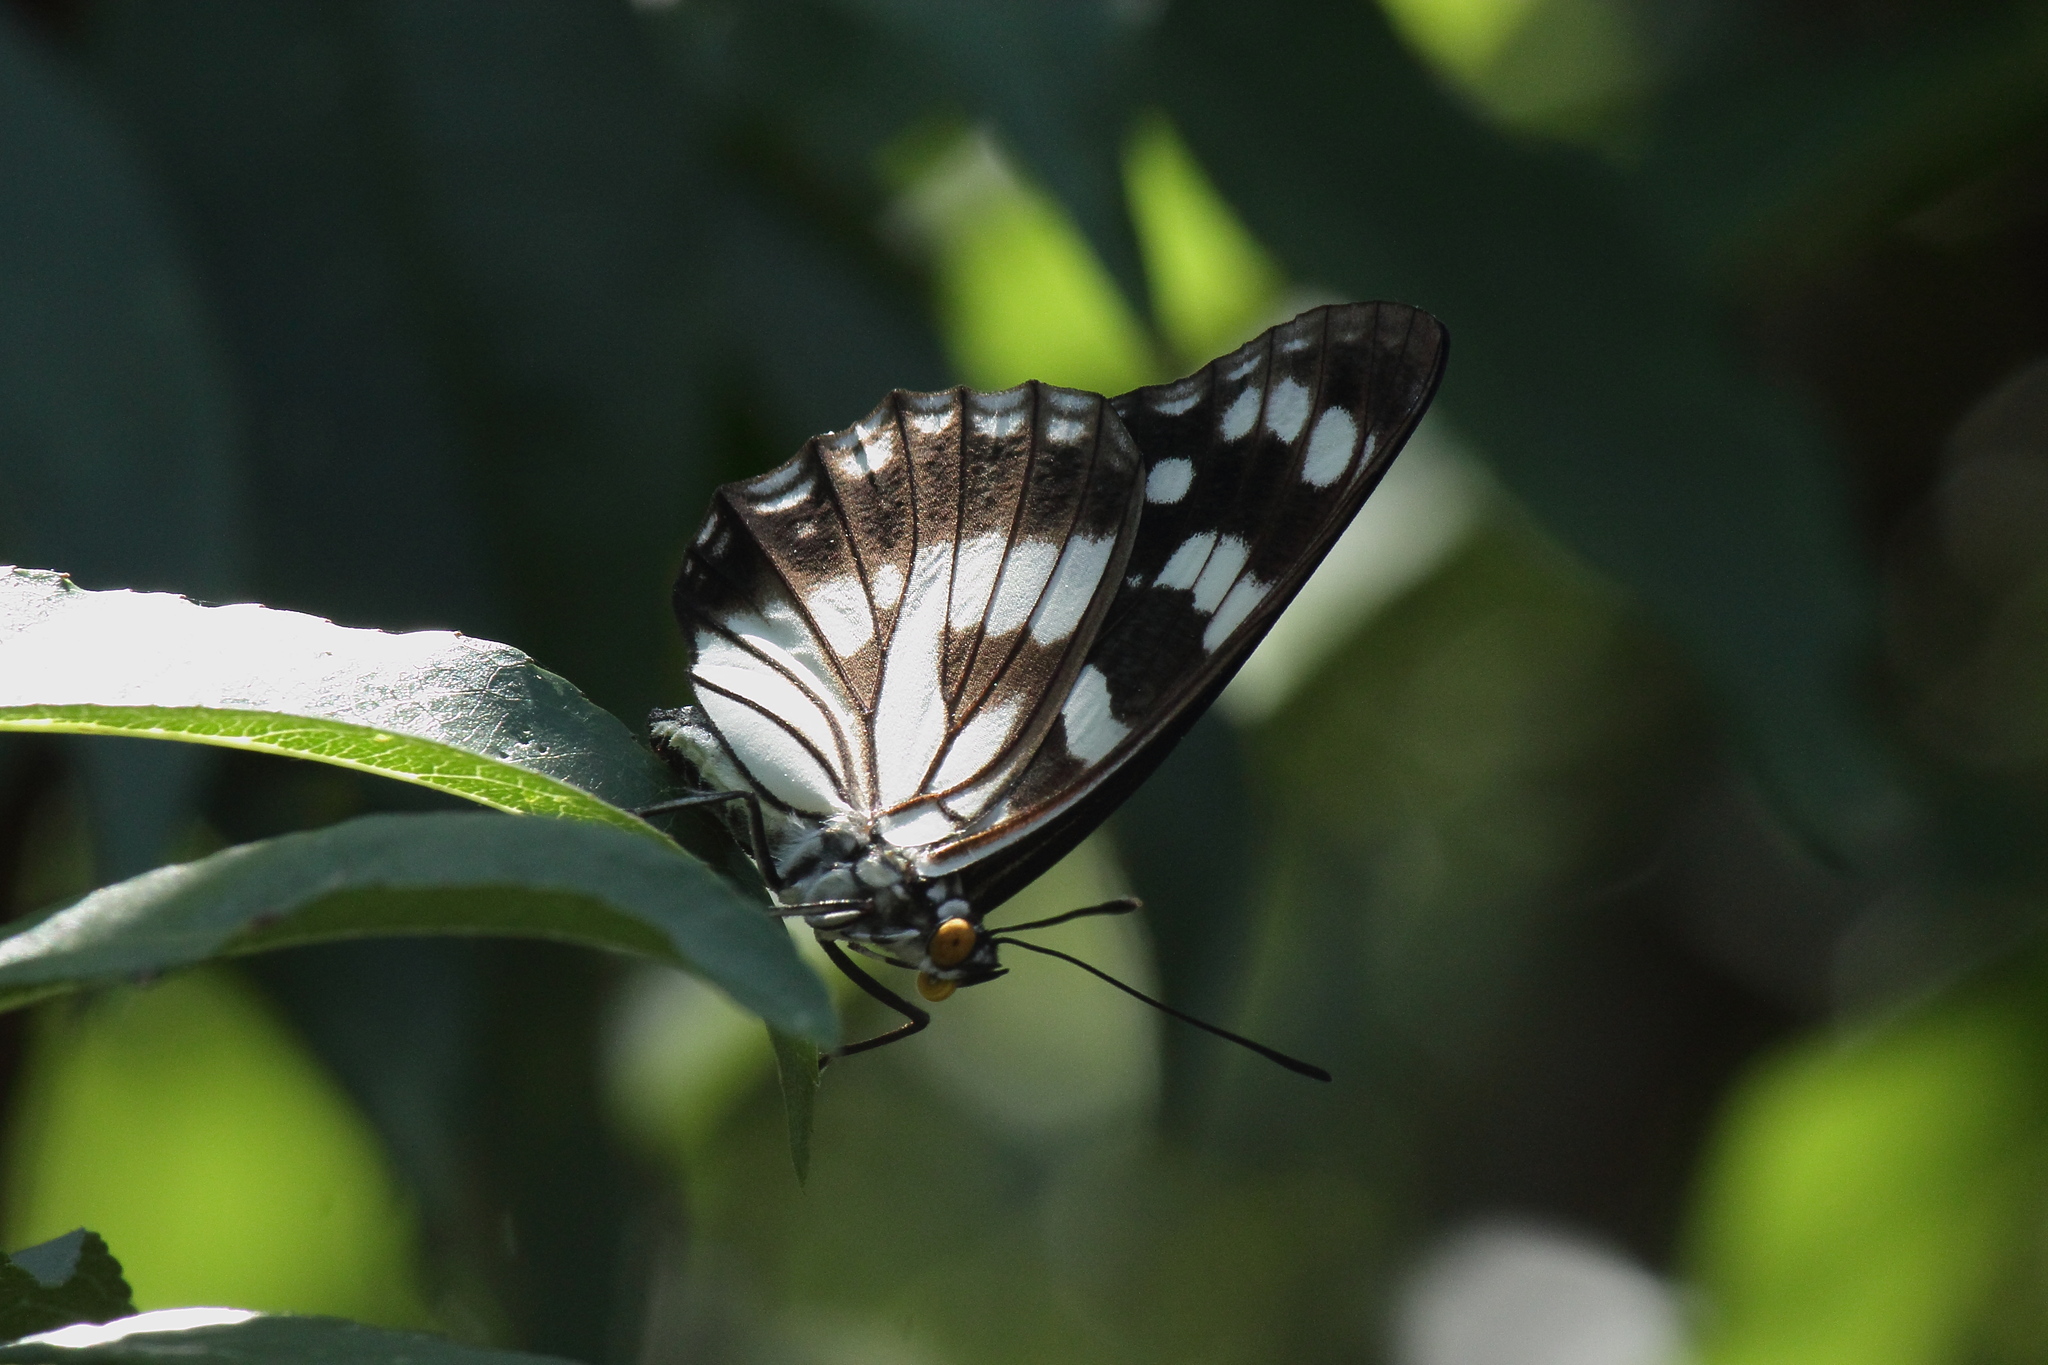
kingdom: Animalia
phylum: Arthropoda
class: Insecta
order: Lepidoptera
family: Nymphalidae
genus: Hestina
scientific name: Hestina persimilis
